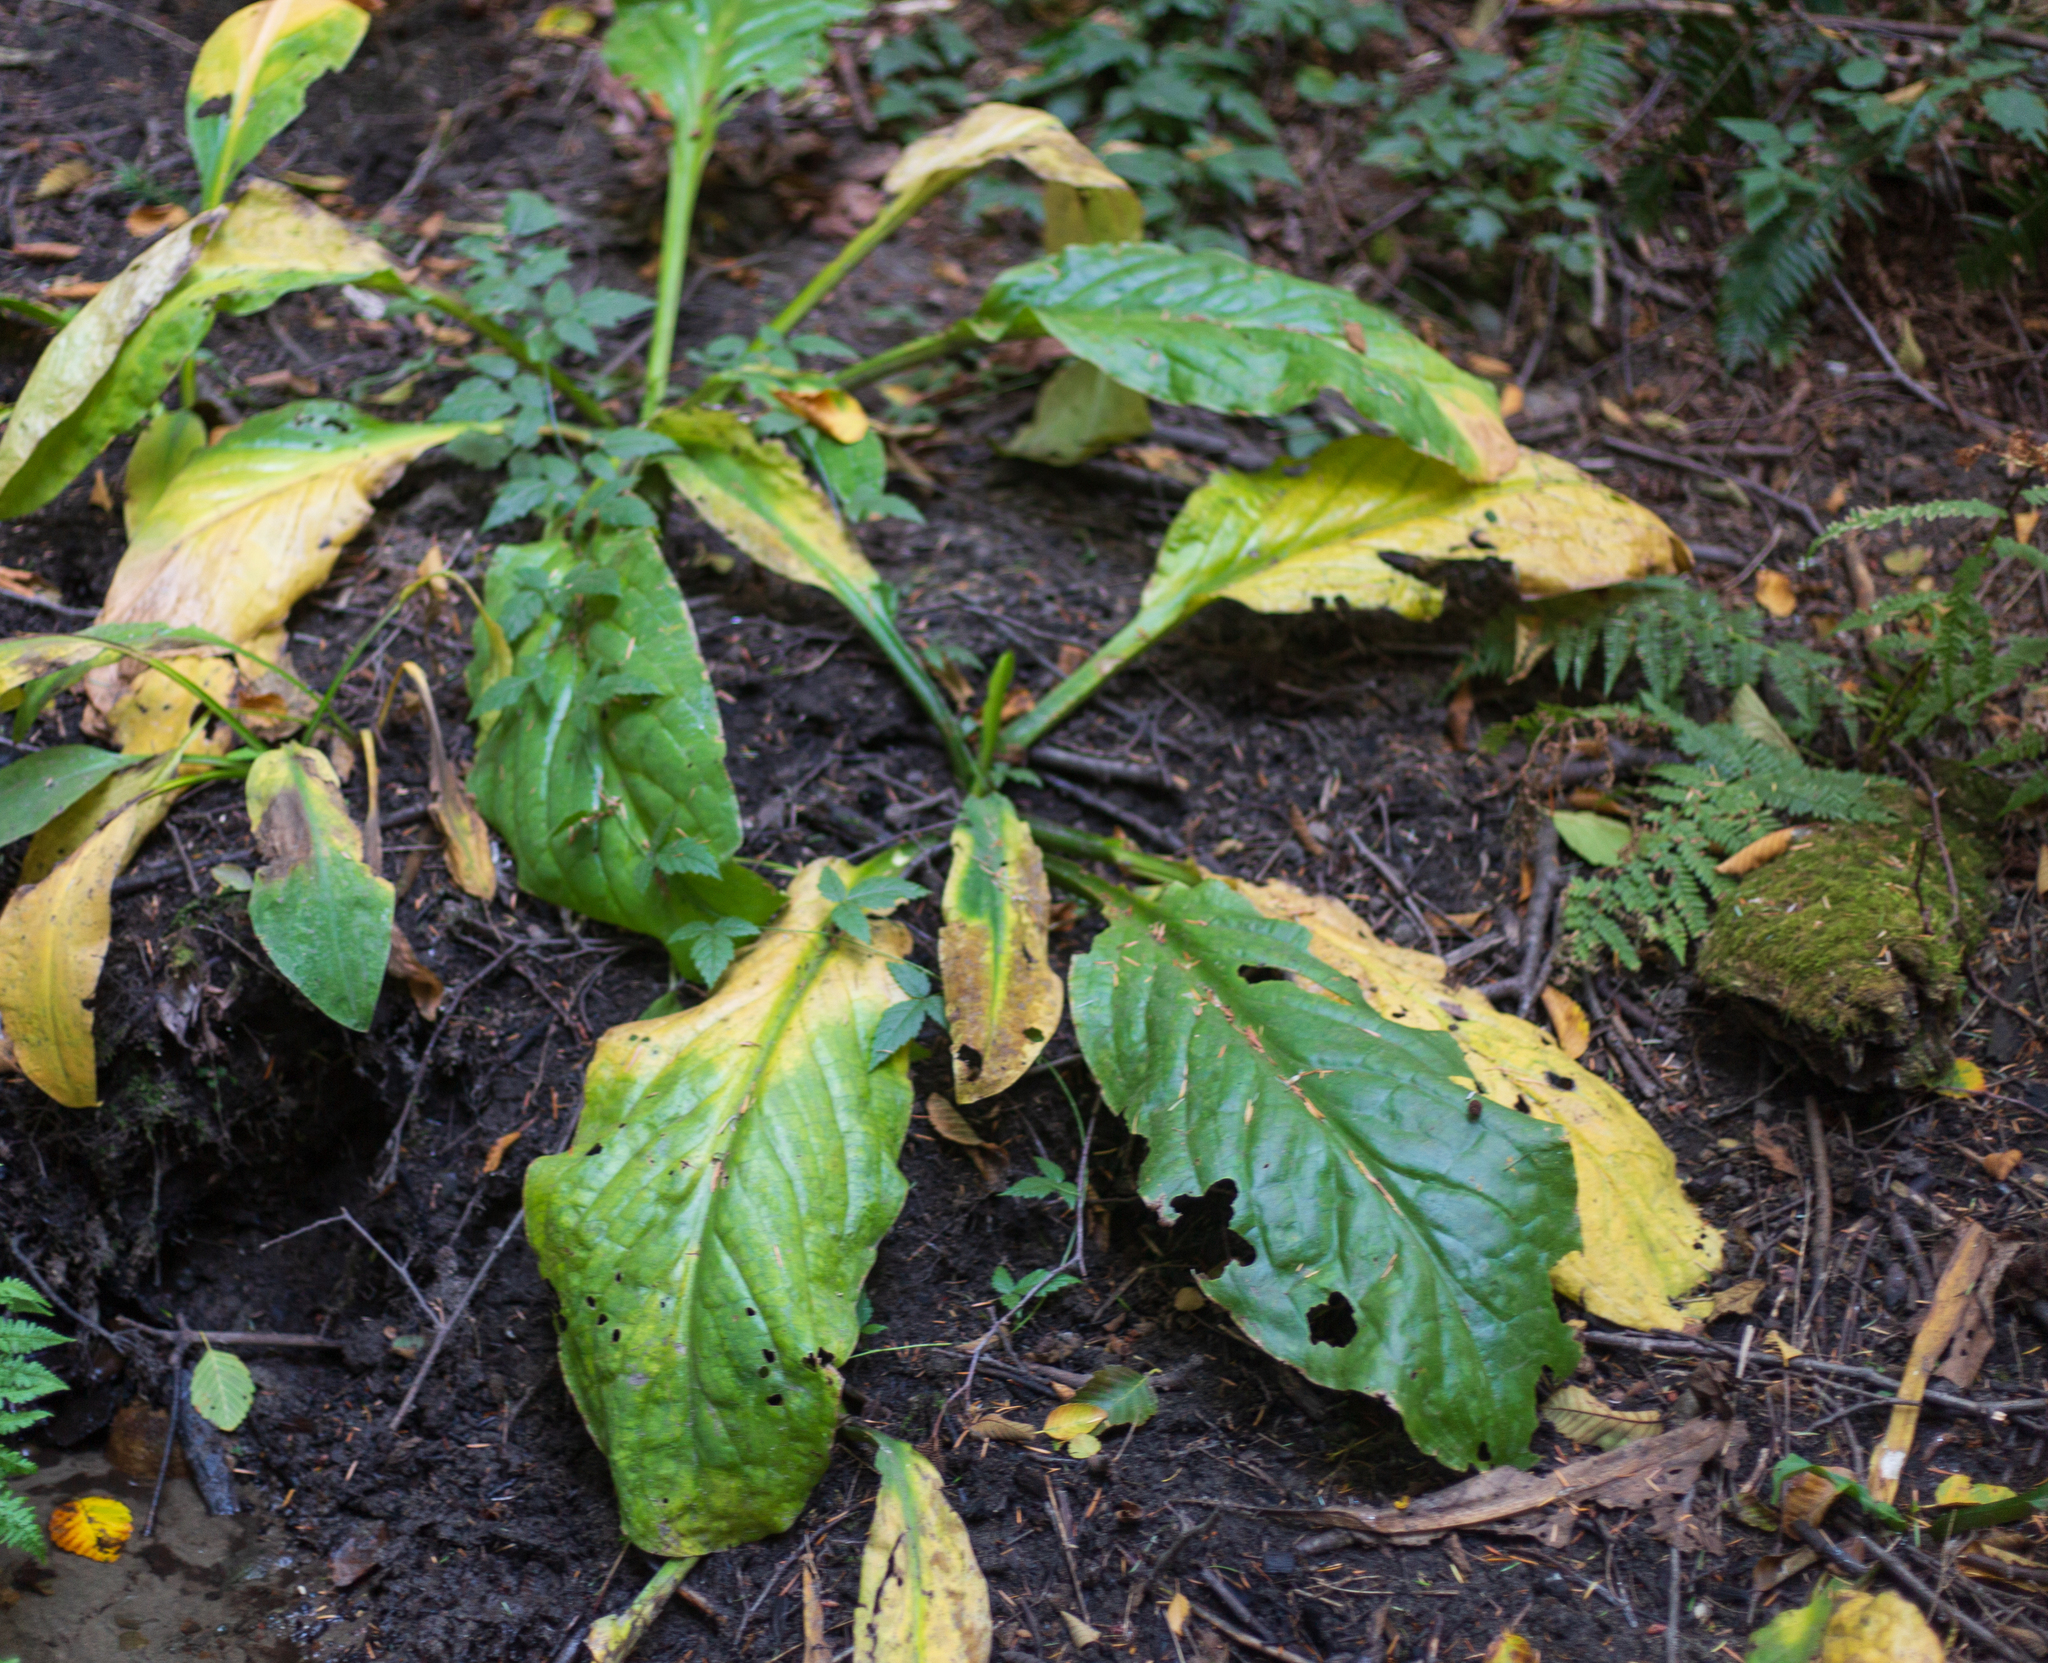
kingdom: Plantae
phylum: Tracheophyta
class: Liliopsida
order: Alismatales
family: Araceae
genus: Lysichiton
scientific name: Lysichiton americanus
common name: American skunk cabbage
